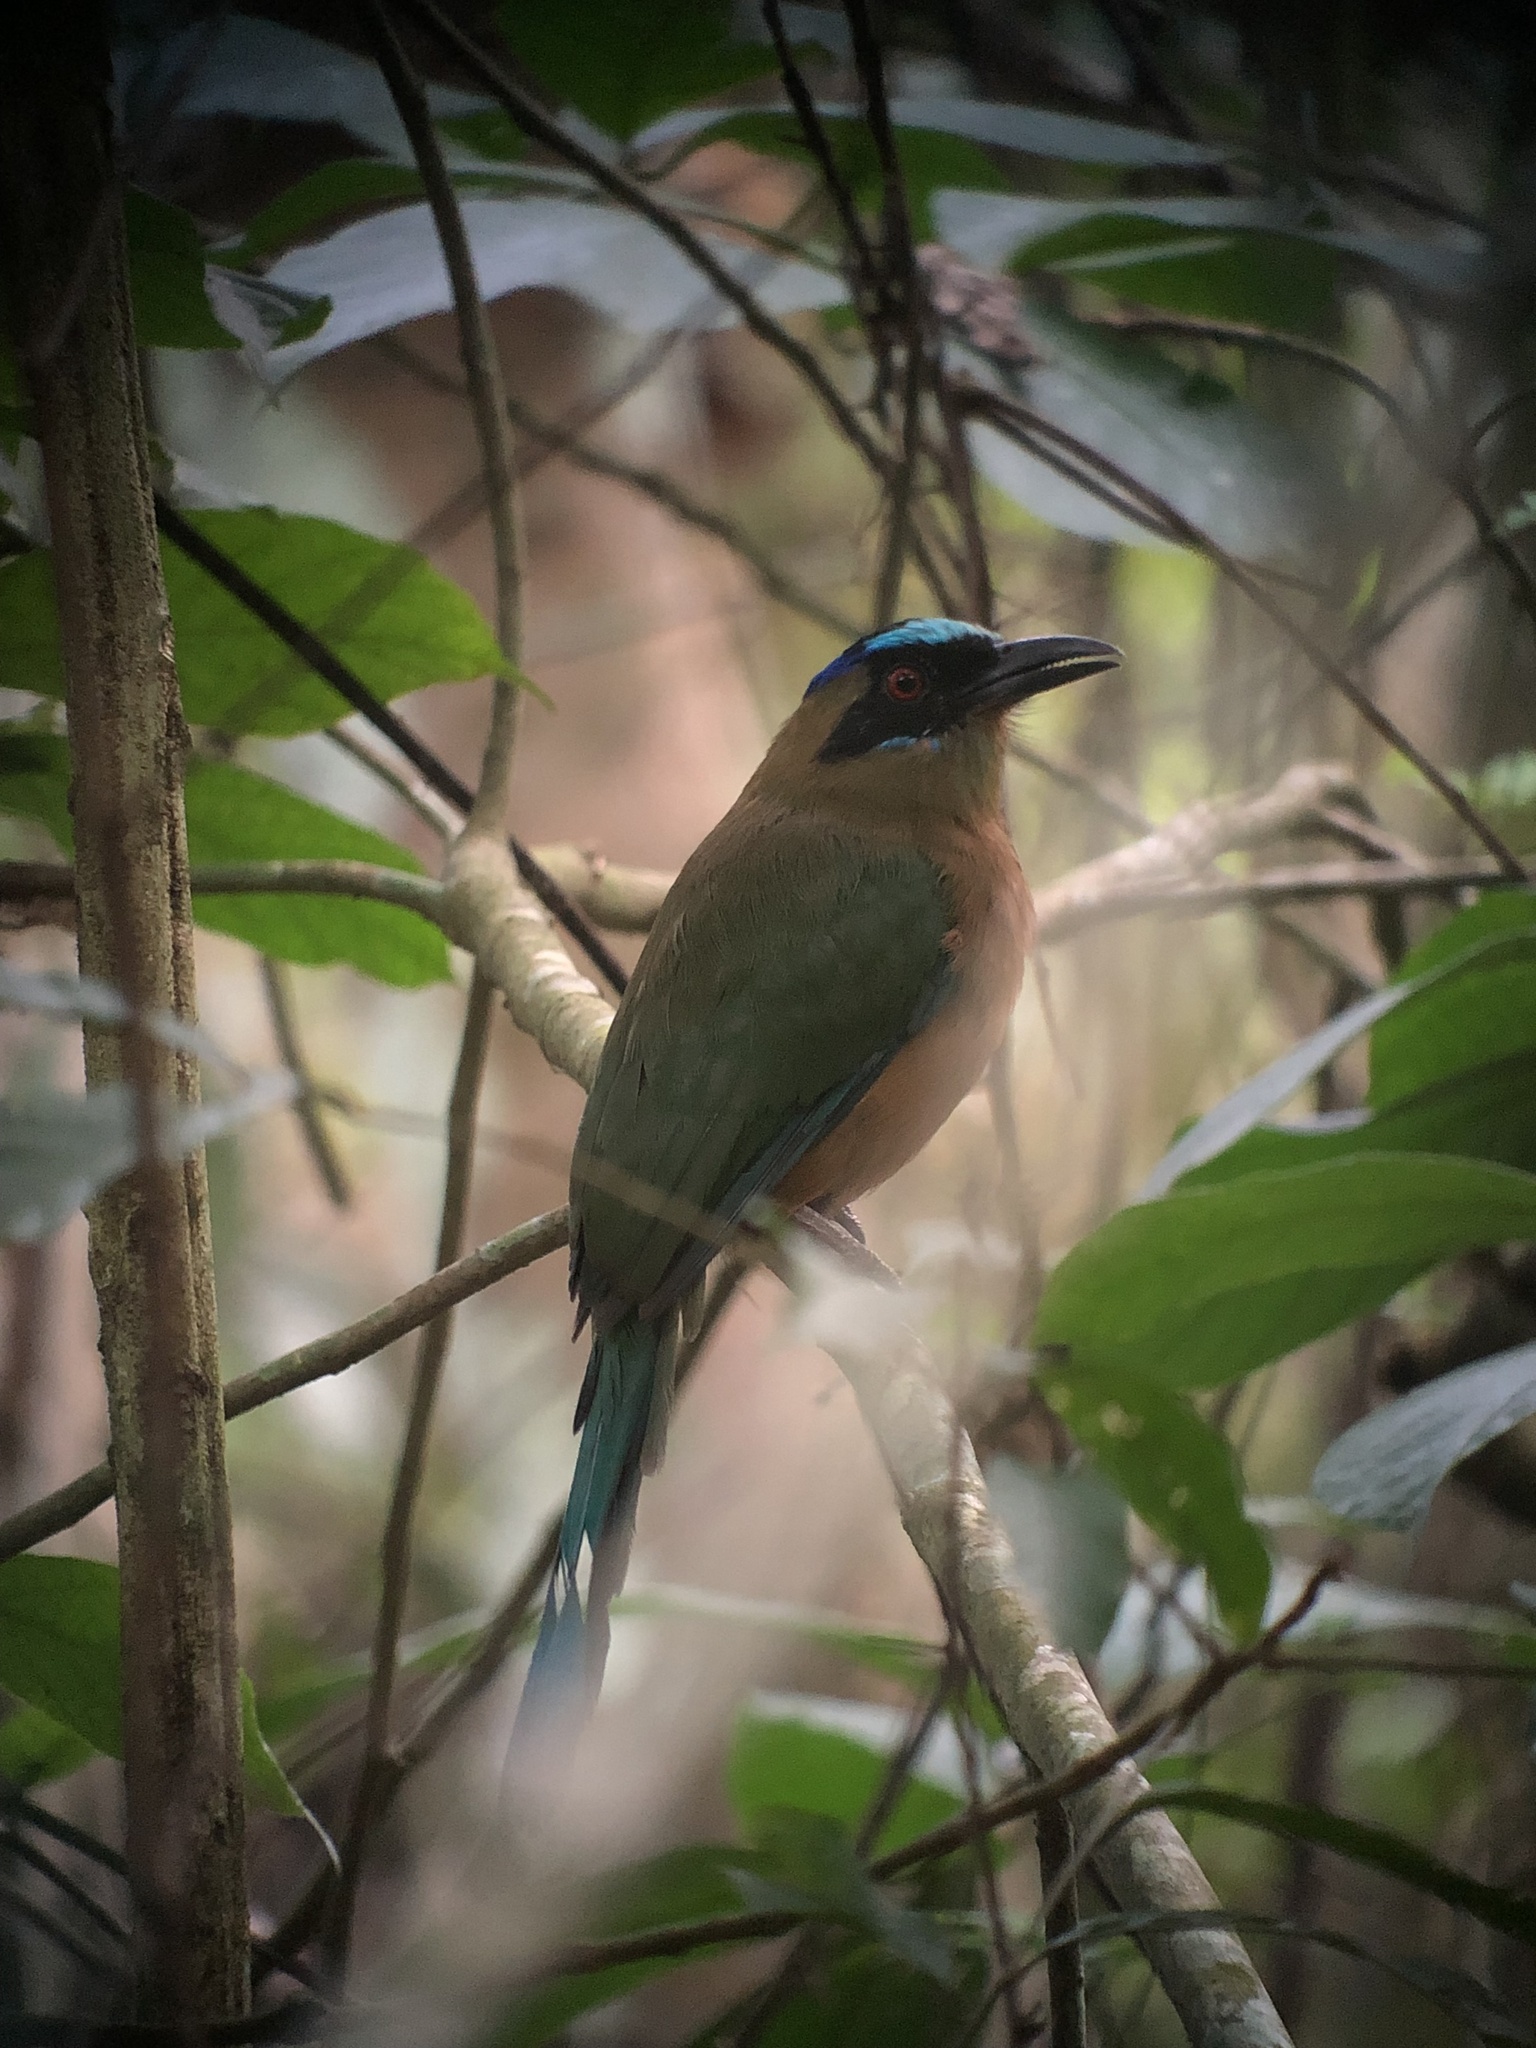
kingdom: Animalia
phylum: Chordata
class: Aves
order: Coraciiformes
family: Momotidae
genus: Momotus
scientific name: Momotus subrufescens
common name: Whooping motmot
